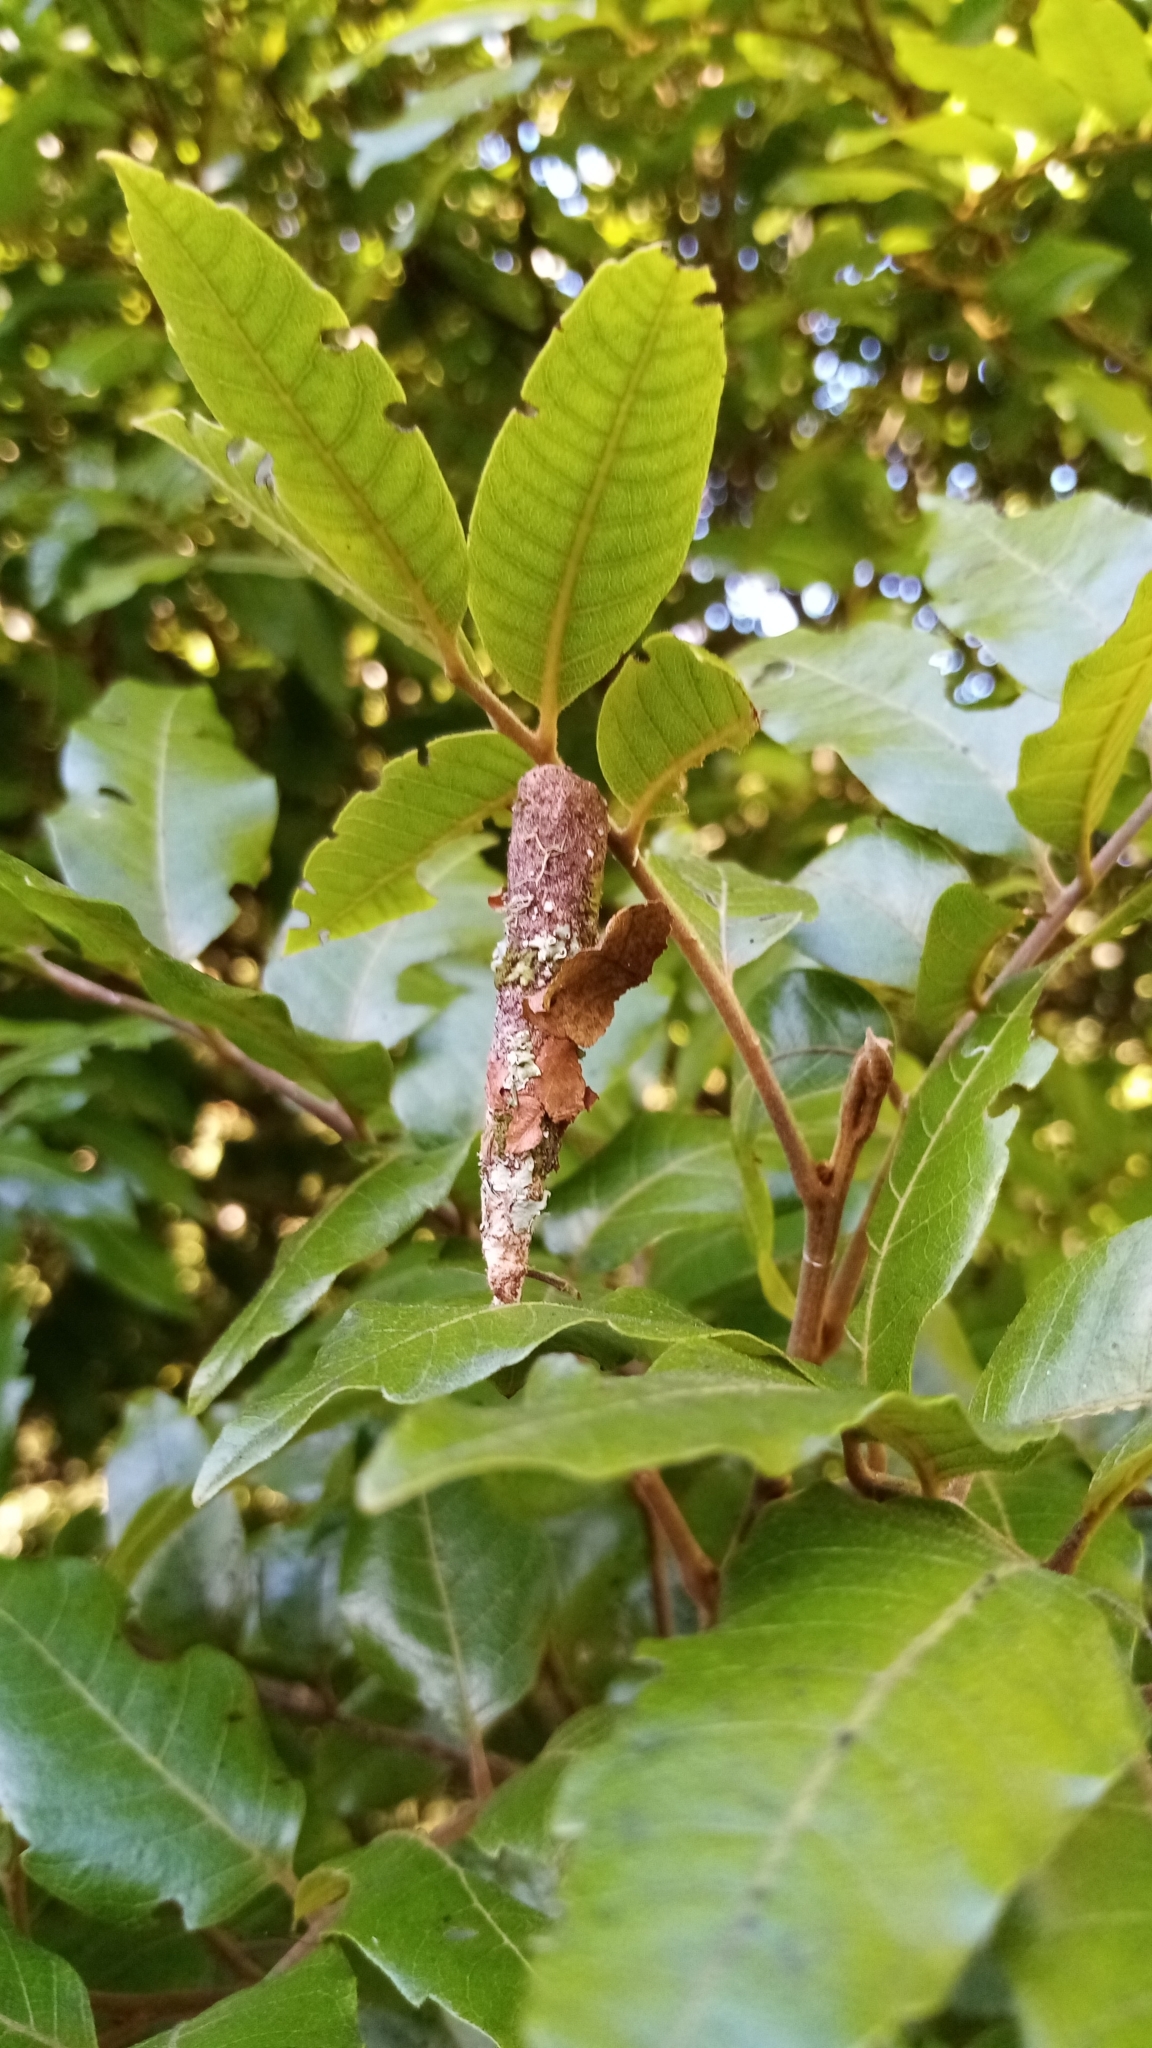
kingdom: Animalia
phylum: Arthropoda
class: Insecta
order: Lepidoptera
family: Psychidae
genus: Liothula
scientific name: Liothula omnivora
